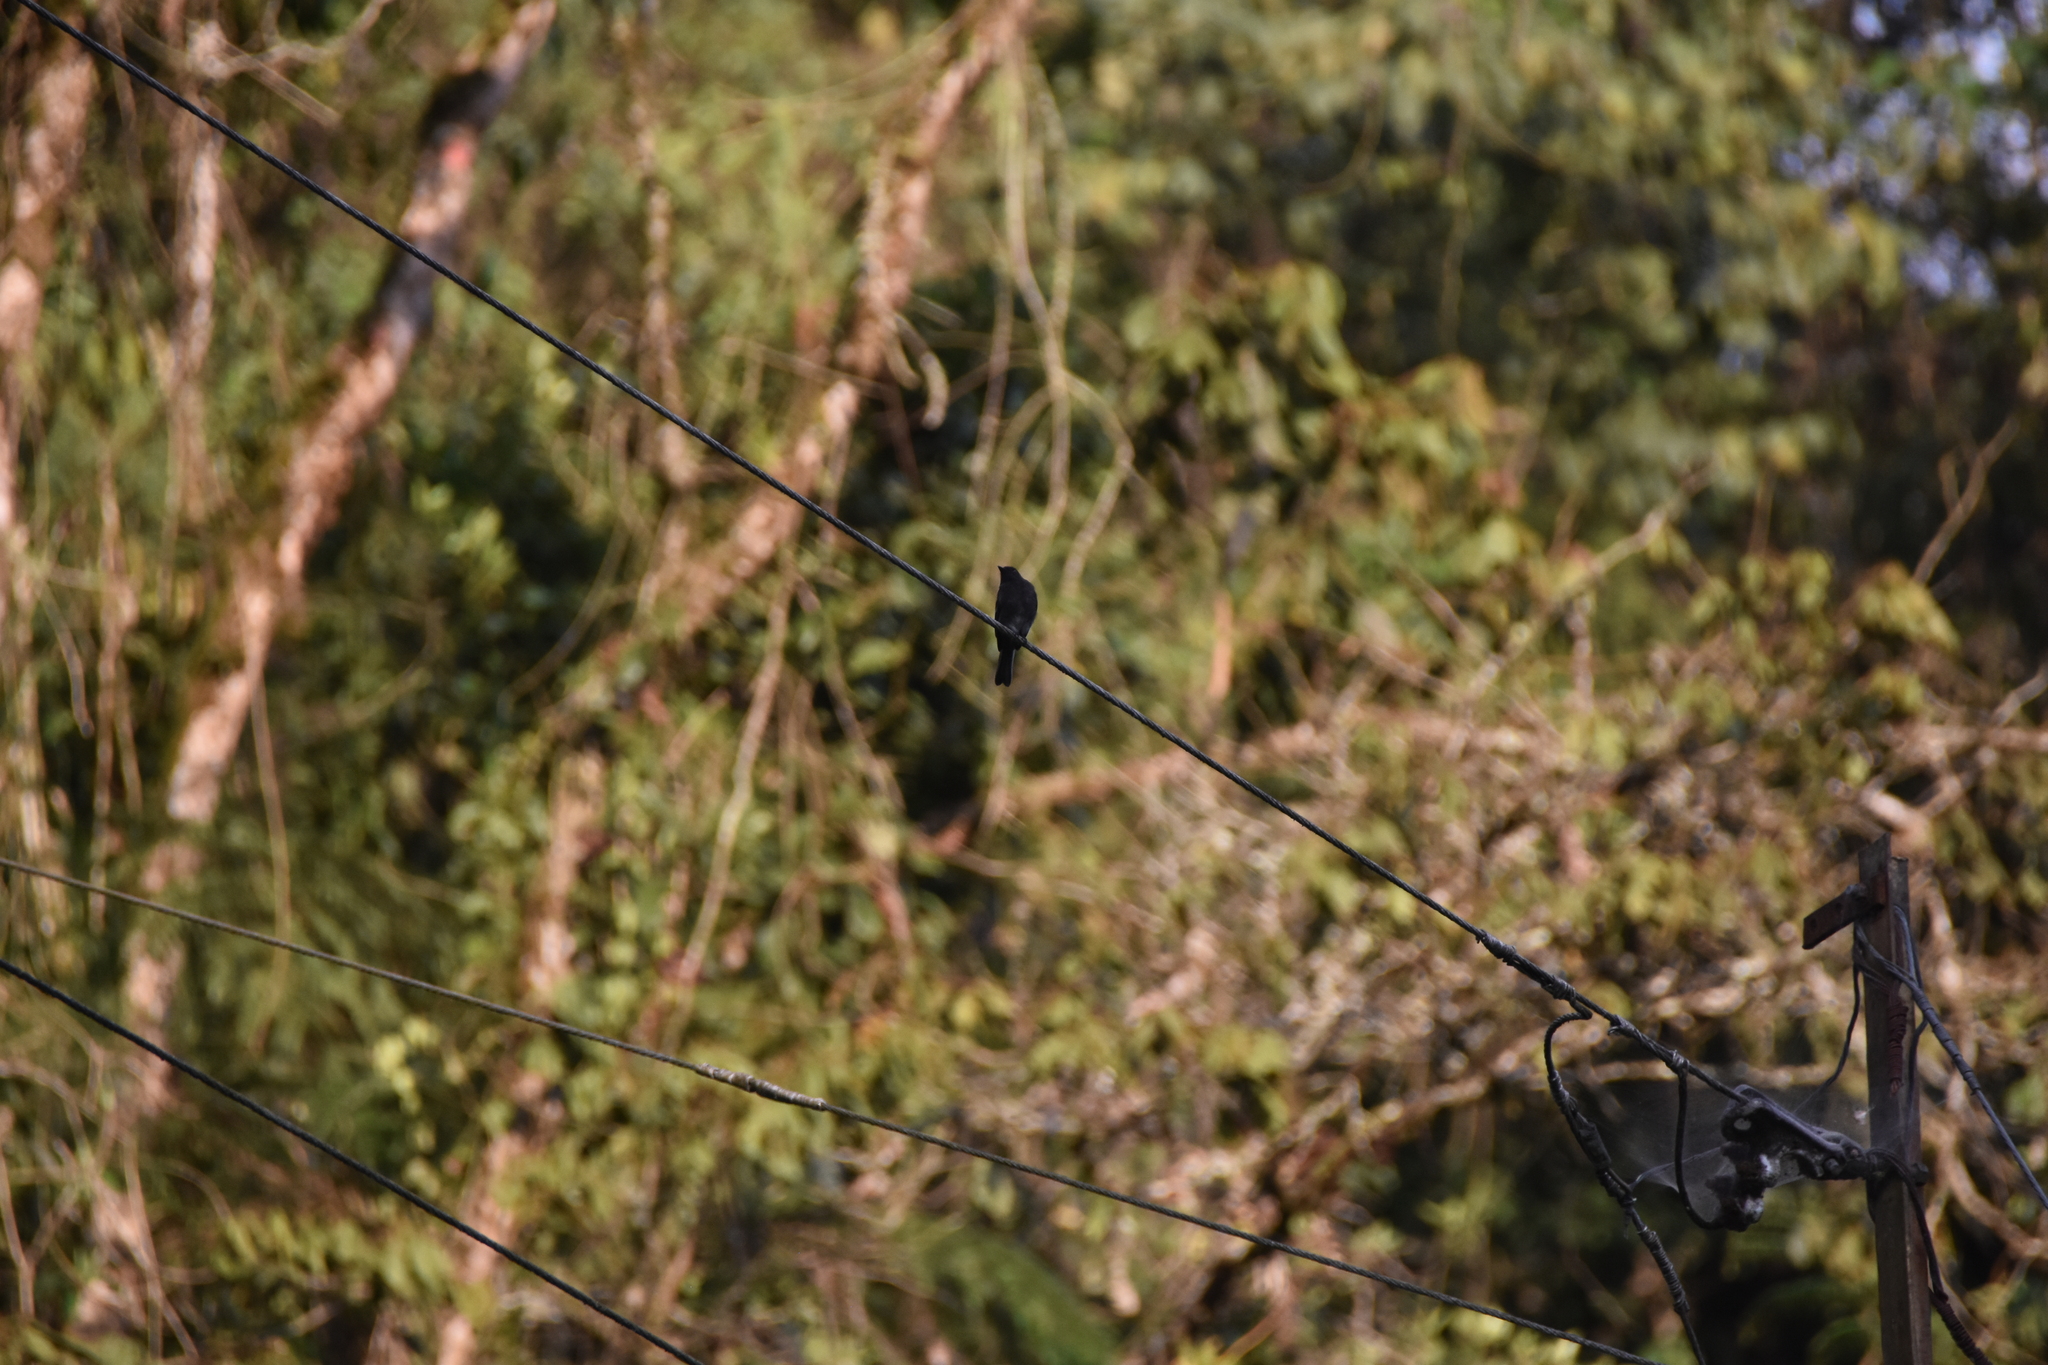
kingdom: Animalia
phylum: Chordata
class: Aves
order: Passeriformes
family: Tyrannidae
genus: Sayornis
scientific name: Sayornis nigricans
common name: Black phoebe
